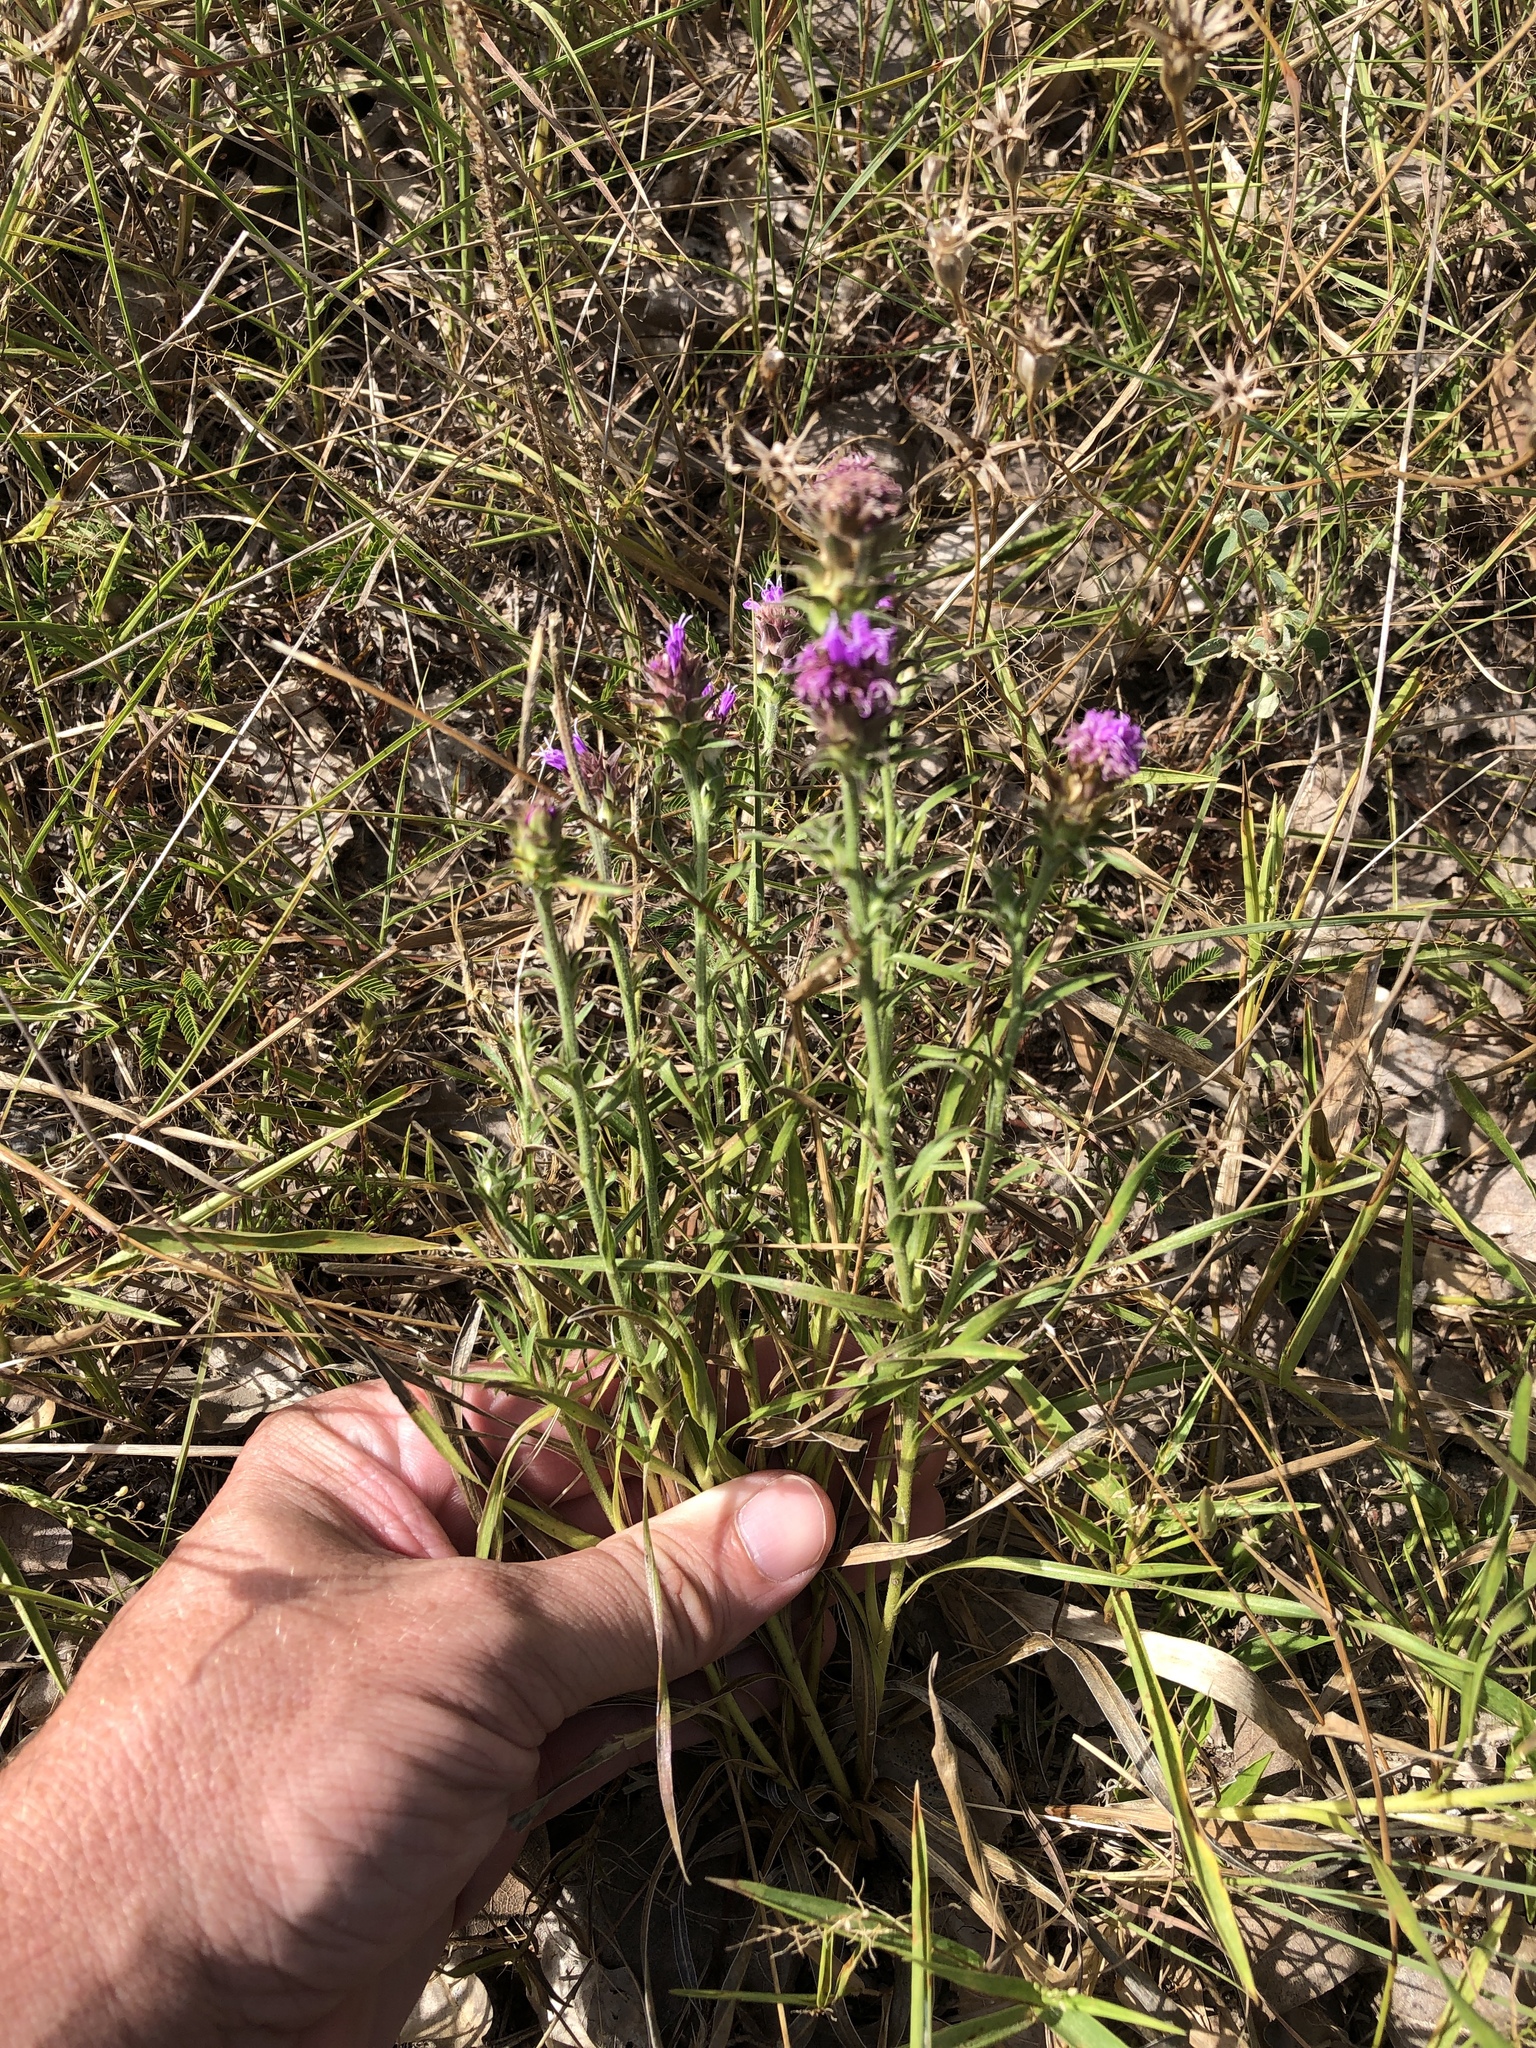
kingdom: Plantae
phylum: Tracheophyta
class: Magnoliopsida
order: Asterales
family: Asteraceae
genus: Liatris
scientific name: Liatris squarrosa
